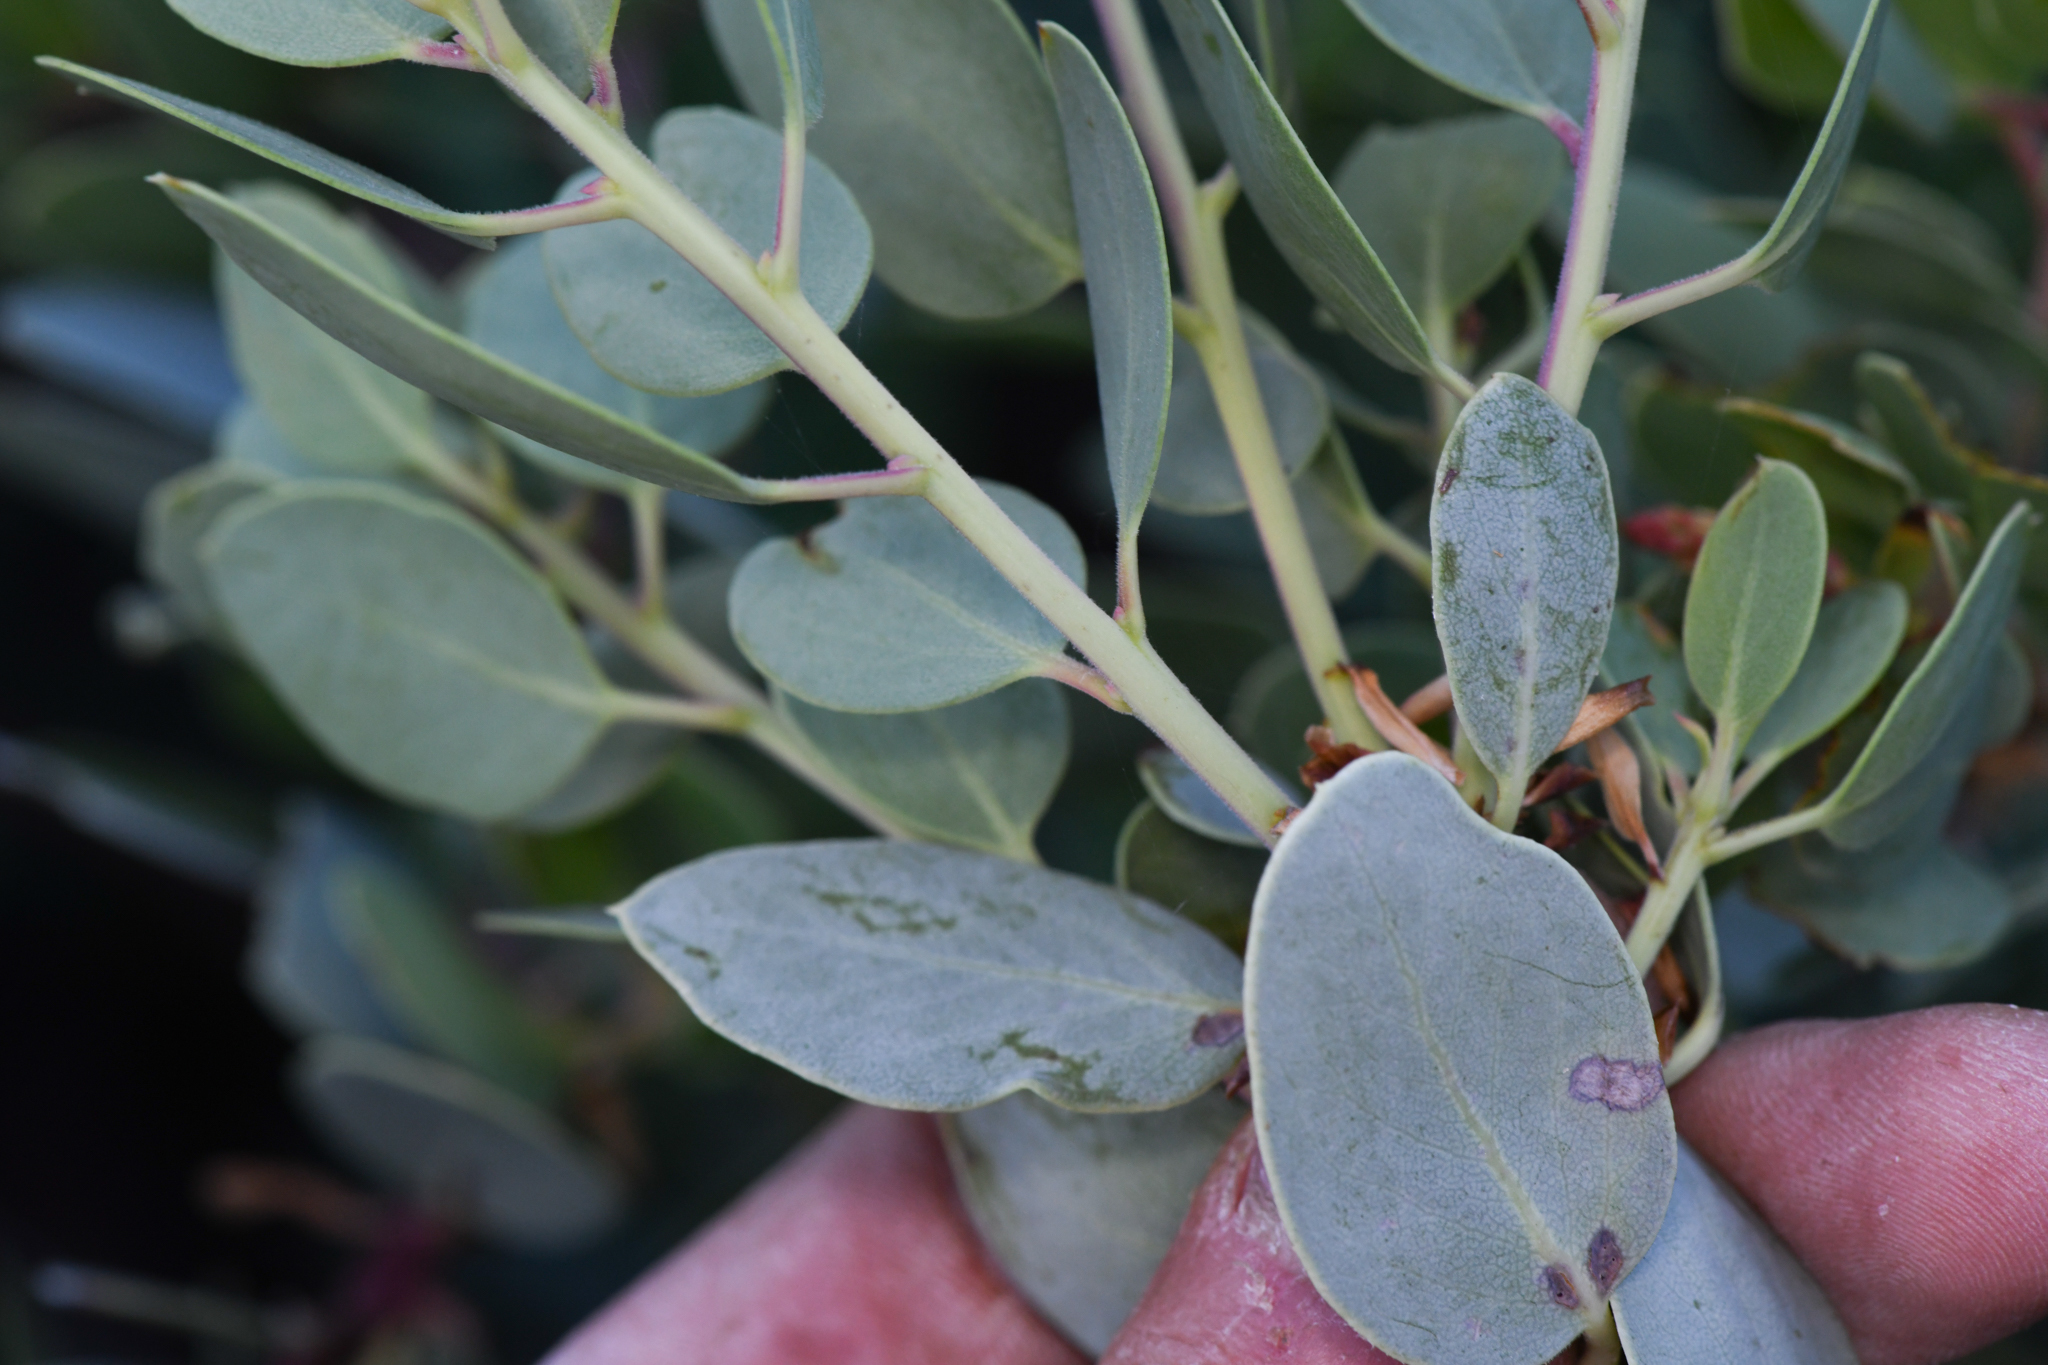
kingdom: Plantae
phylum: Tracheophyta
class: Magnoliopsida
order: Ericales
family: Ericaceae
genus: Arctostaphylos
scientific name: Arctostaphylos peninsularis
